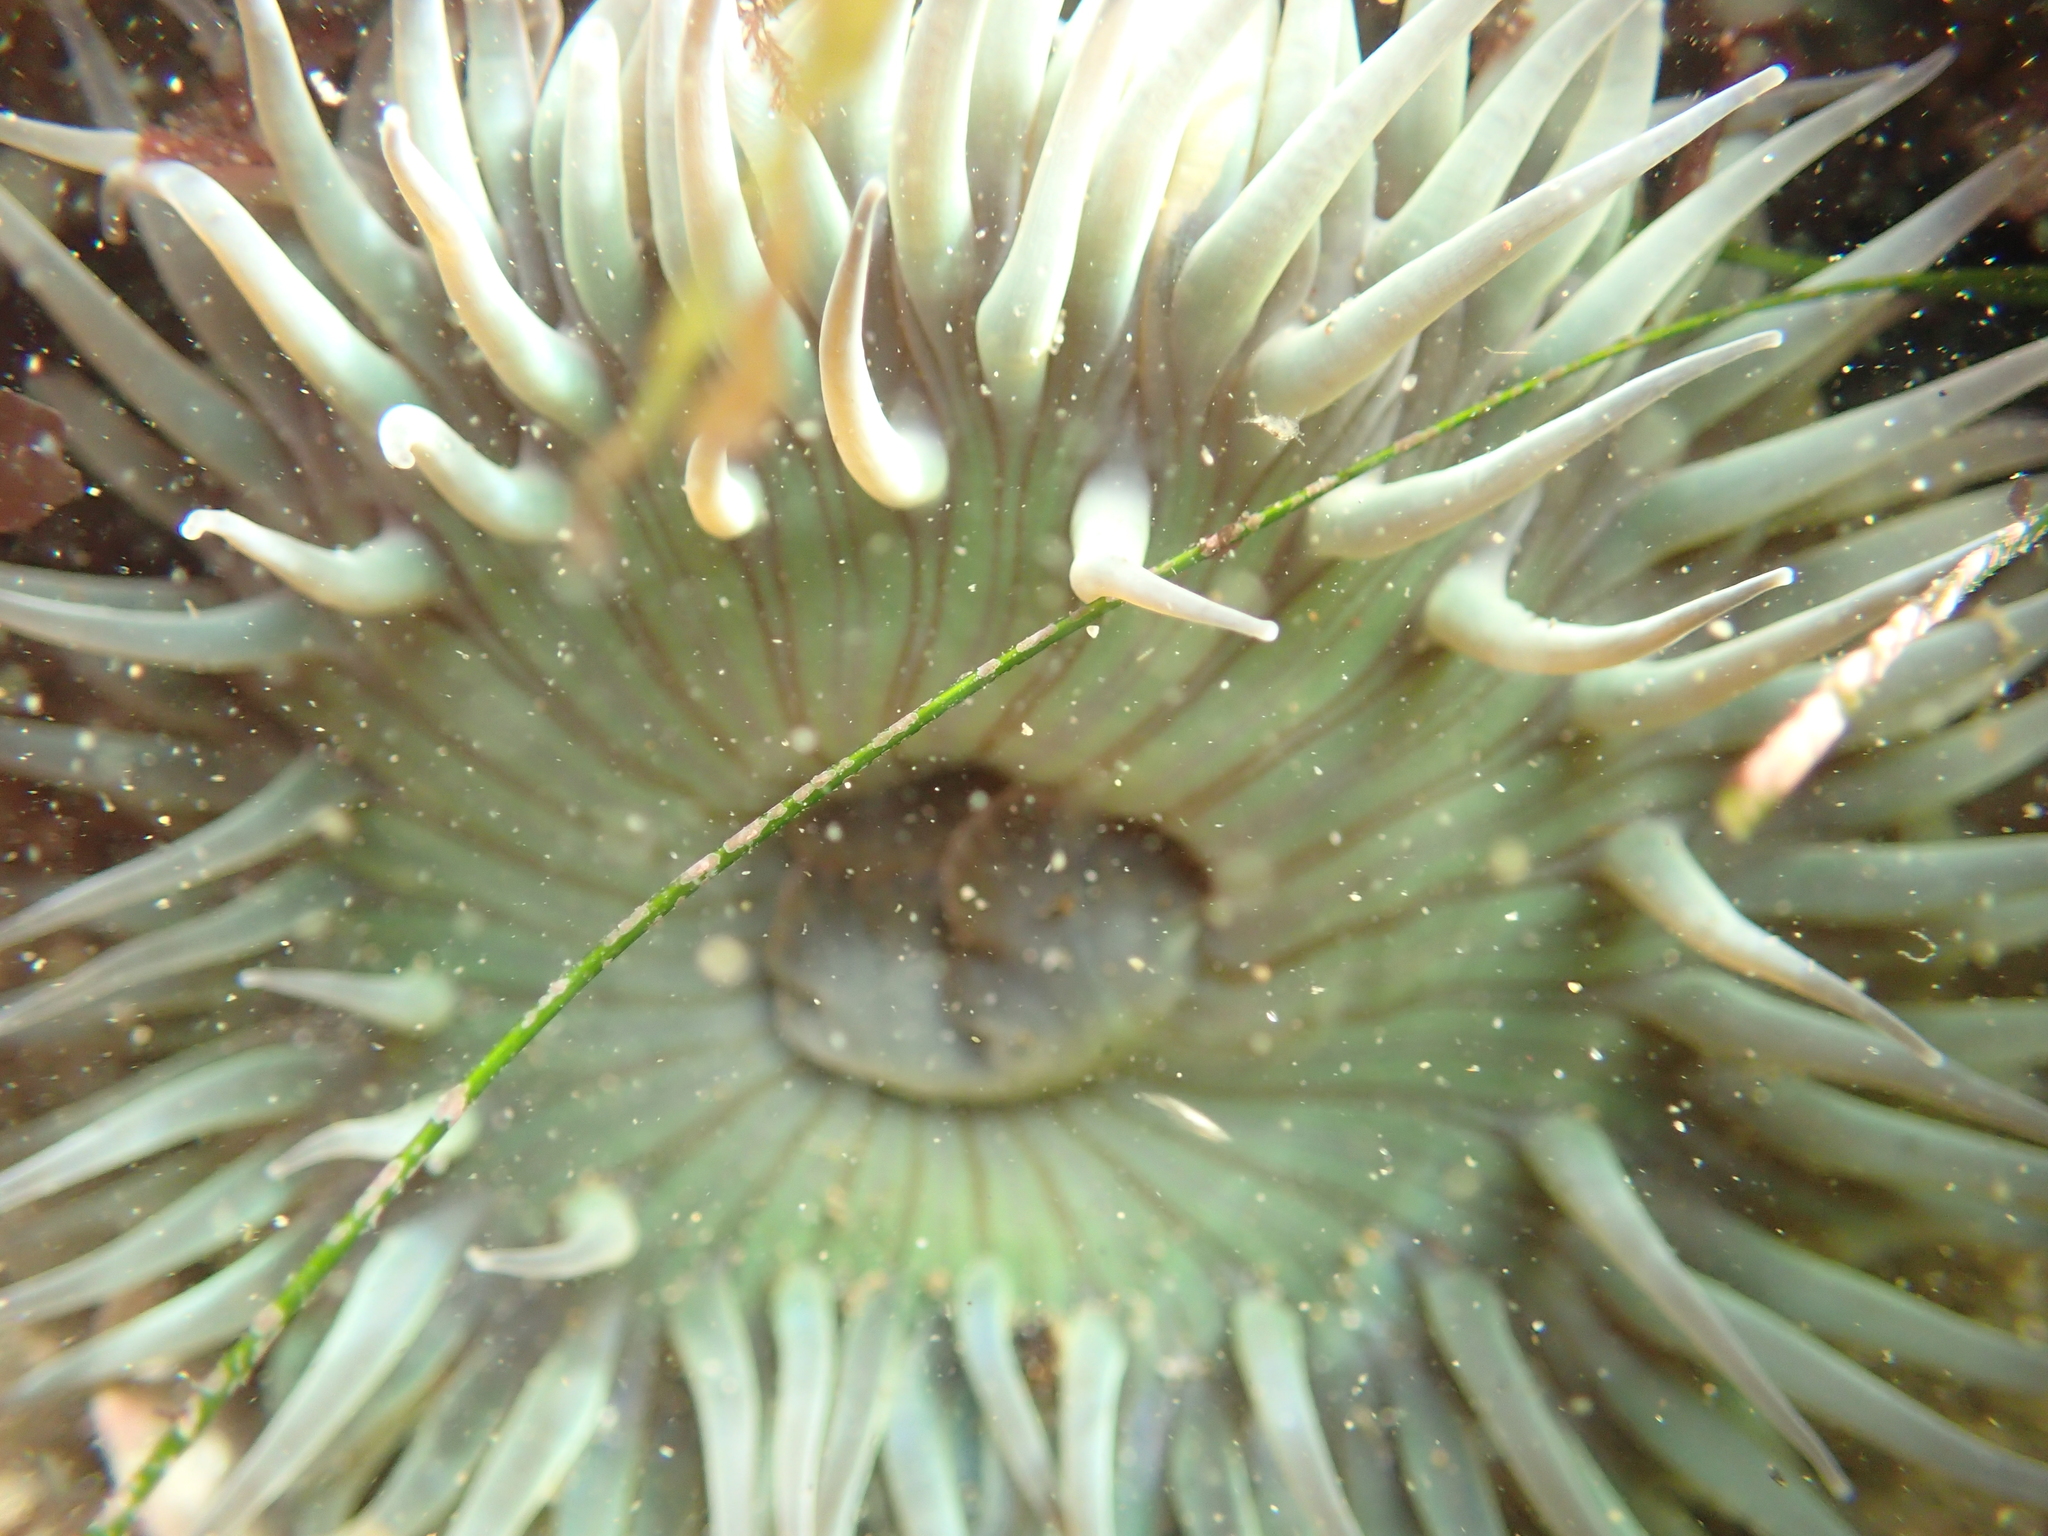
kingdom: Animalia
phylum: Cnidaria
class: Anthozoa
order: Actiniaria
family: Actiniidae
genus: Anthopleura
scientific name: Anthopleura sola
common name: Sun anemone
